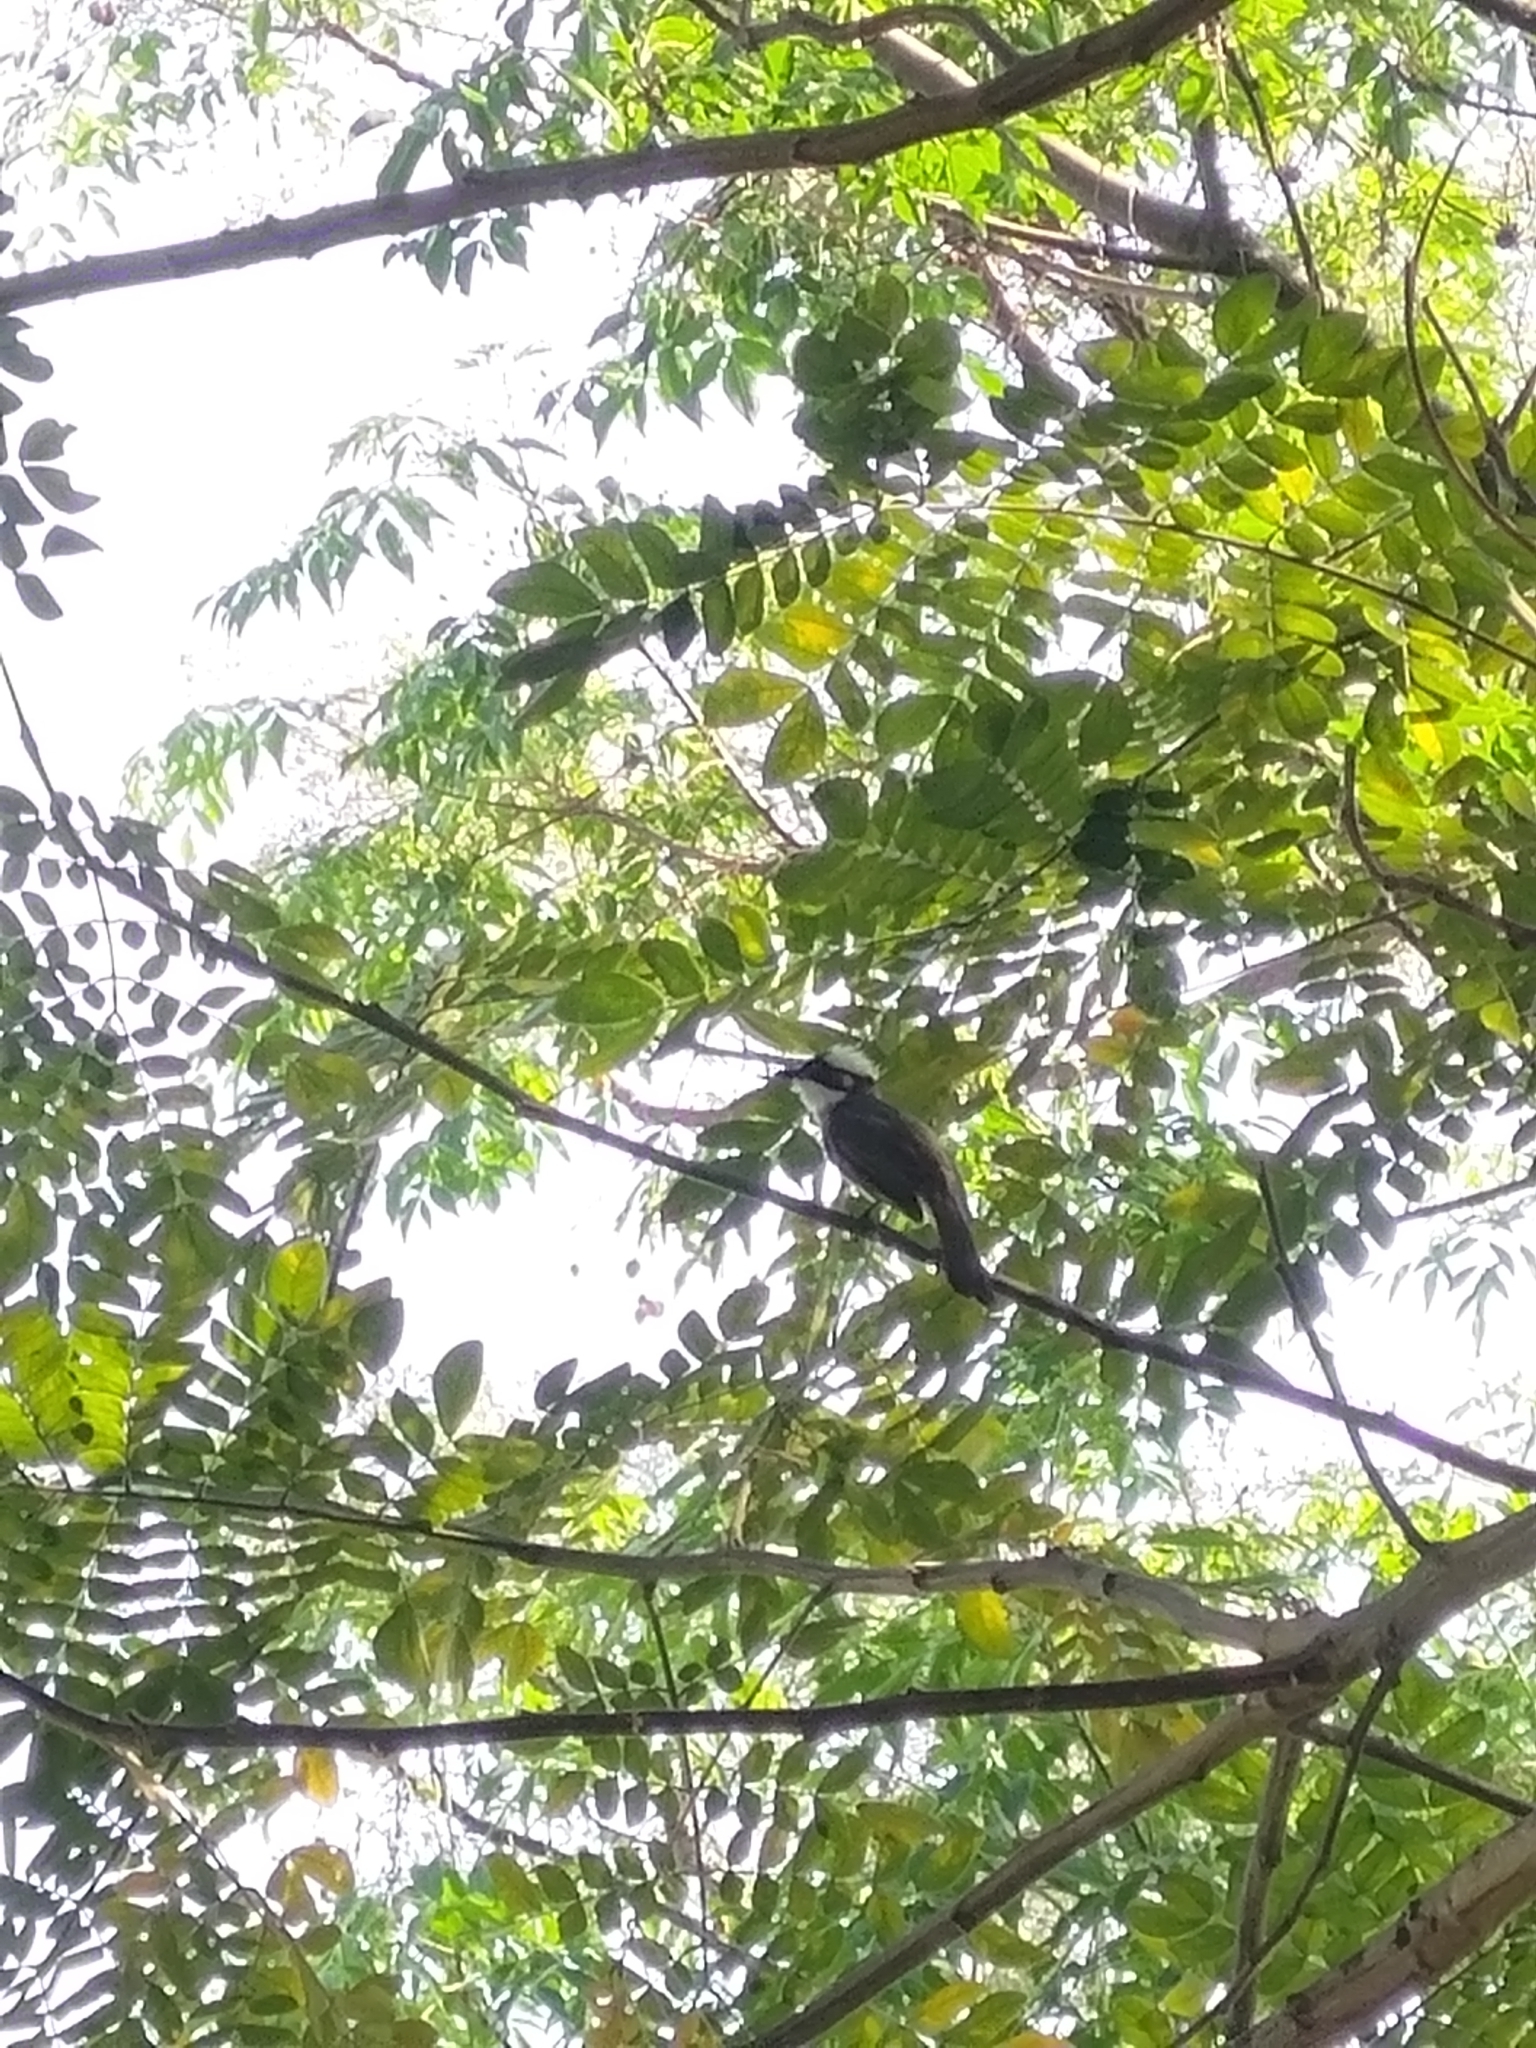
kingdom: Animalia
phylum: Chordata
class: Aves
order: Passeriformes
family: Pycnonotidae
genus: Pycnonotus
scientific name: Pycnonotus sinensis
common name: Light-vented bulbul
